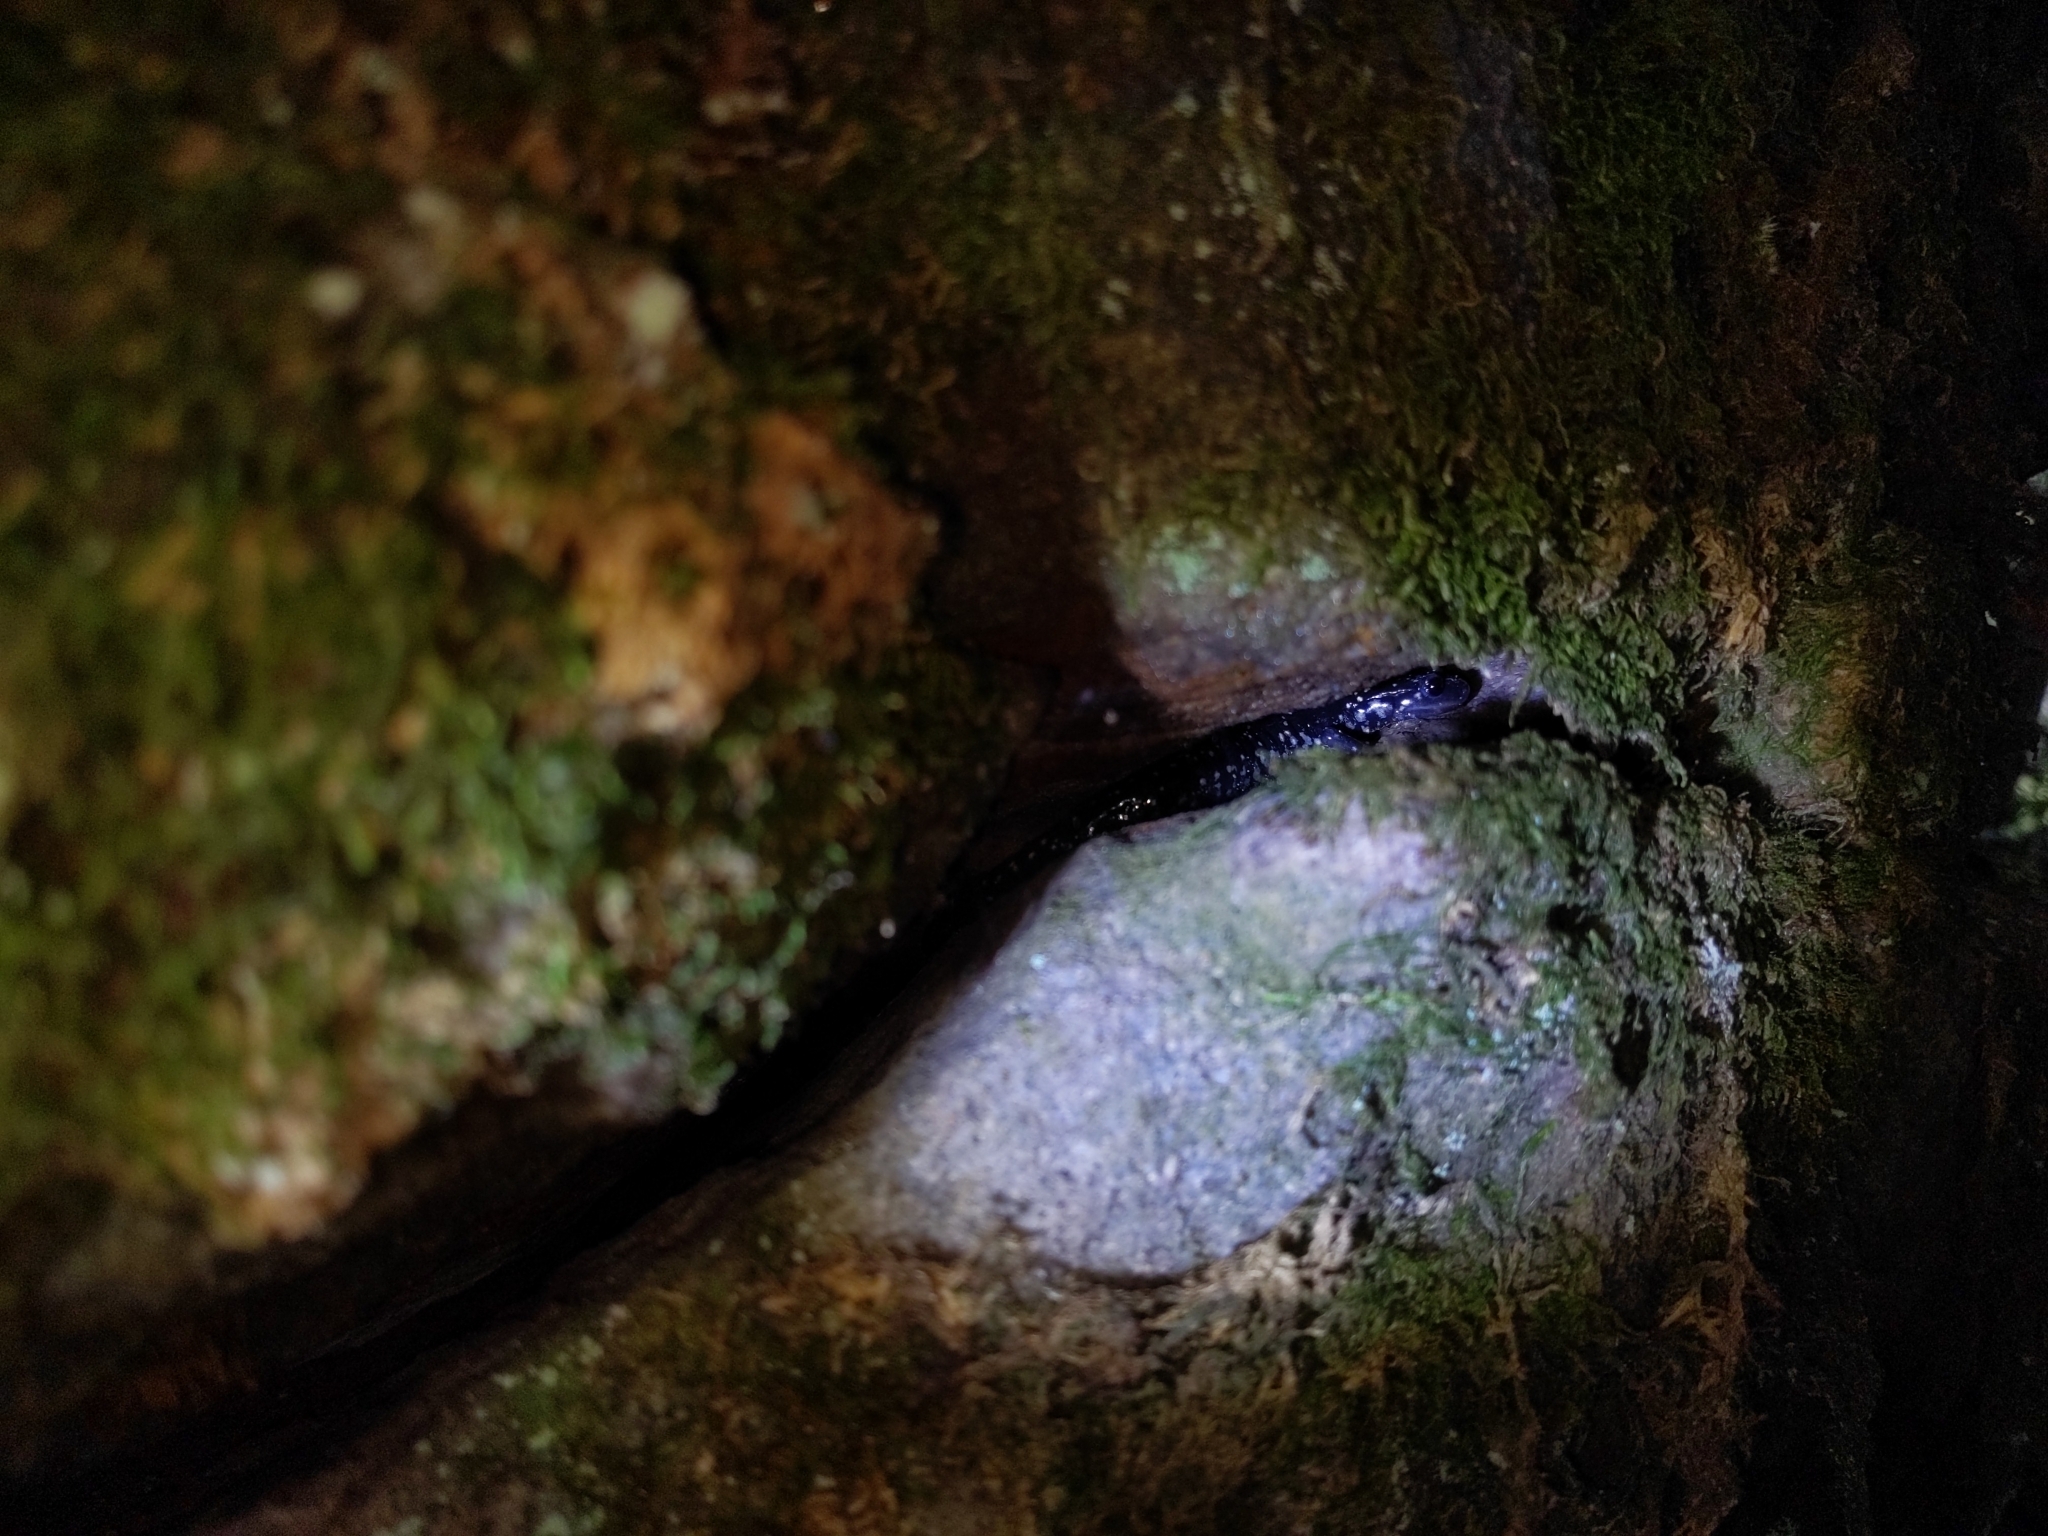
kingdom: Animalia
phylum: Chordata
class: Amphibia
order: Caudata
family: Plethodontidae
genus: Plethodon
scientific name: Plethodon glutinosus
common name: Northern slimy salamander
